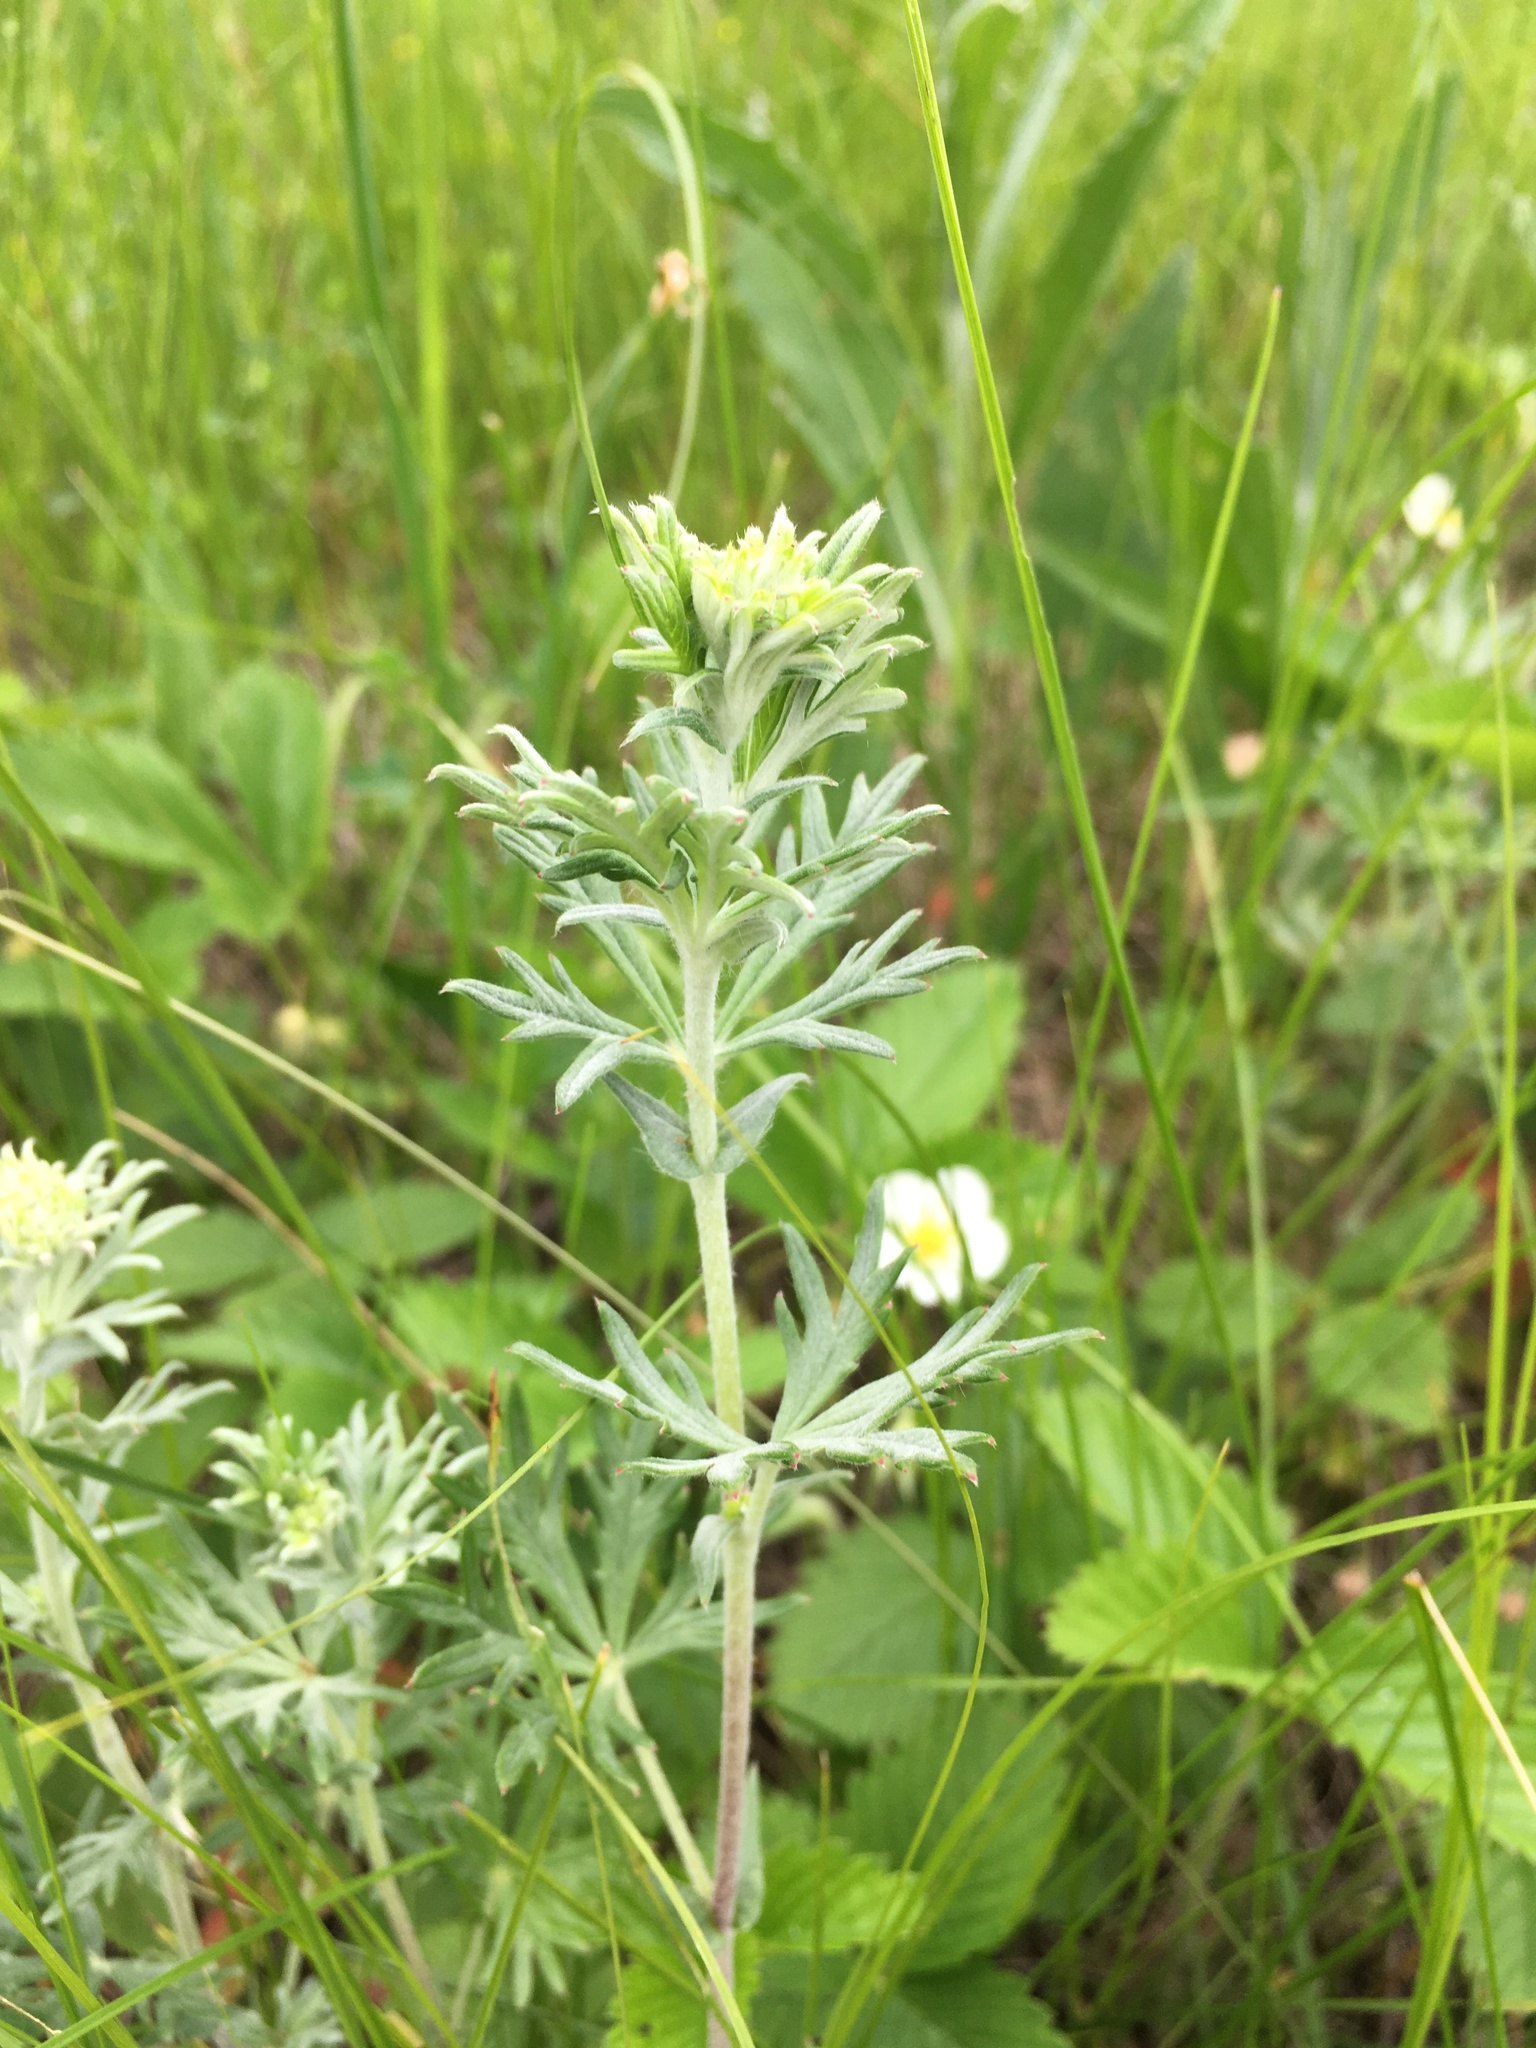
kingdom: Plantae
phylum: Tracheophyta
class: Magnoliopsida
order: Rosales
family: Rosaceae
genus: Potentilla
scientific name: Potentilla argentea
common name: Hoary cinquefoil
